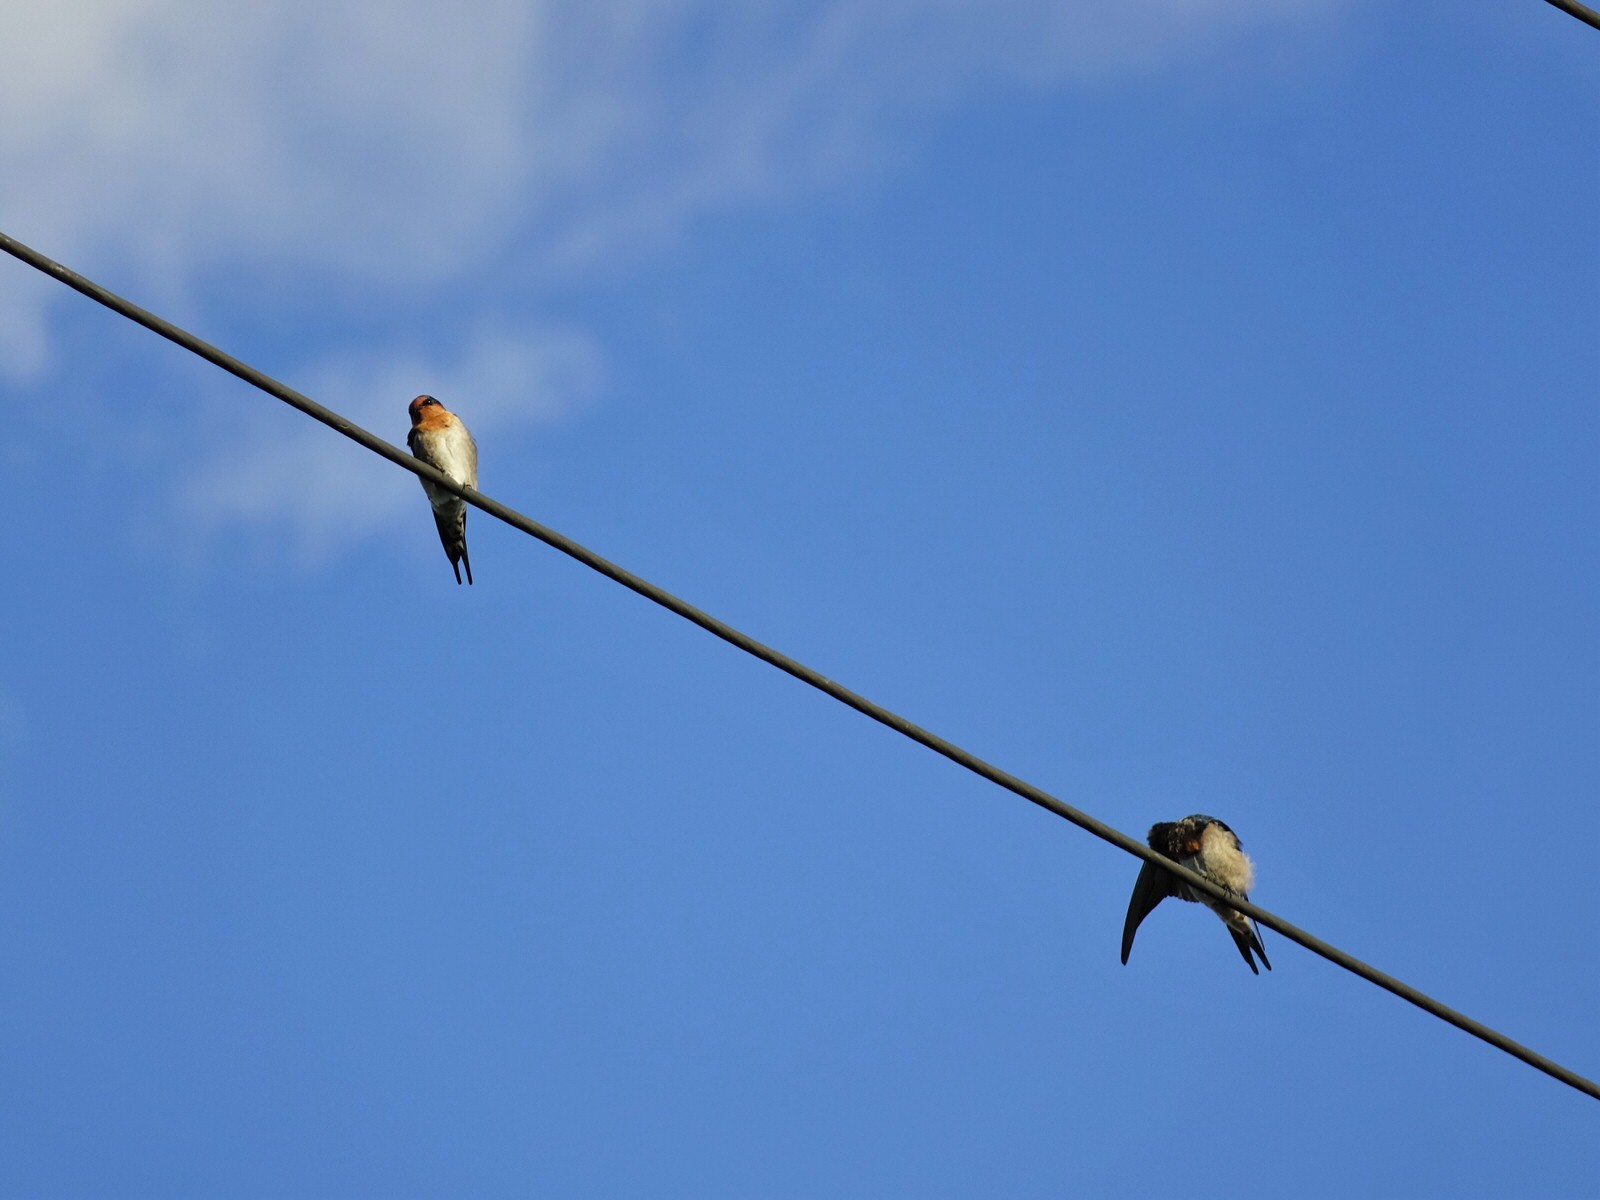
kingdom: Animalia
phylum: Chordata
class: Aves
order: Passeriformes
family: Hirundinidae
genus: Hirundo
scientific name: Hirundo neoxena
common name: Welcome swallow
